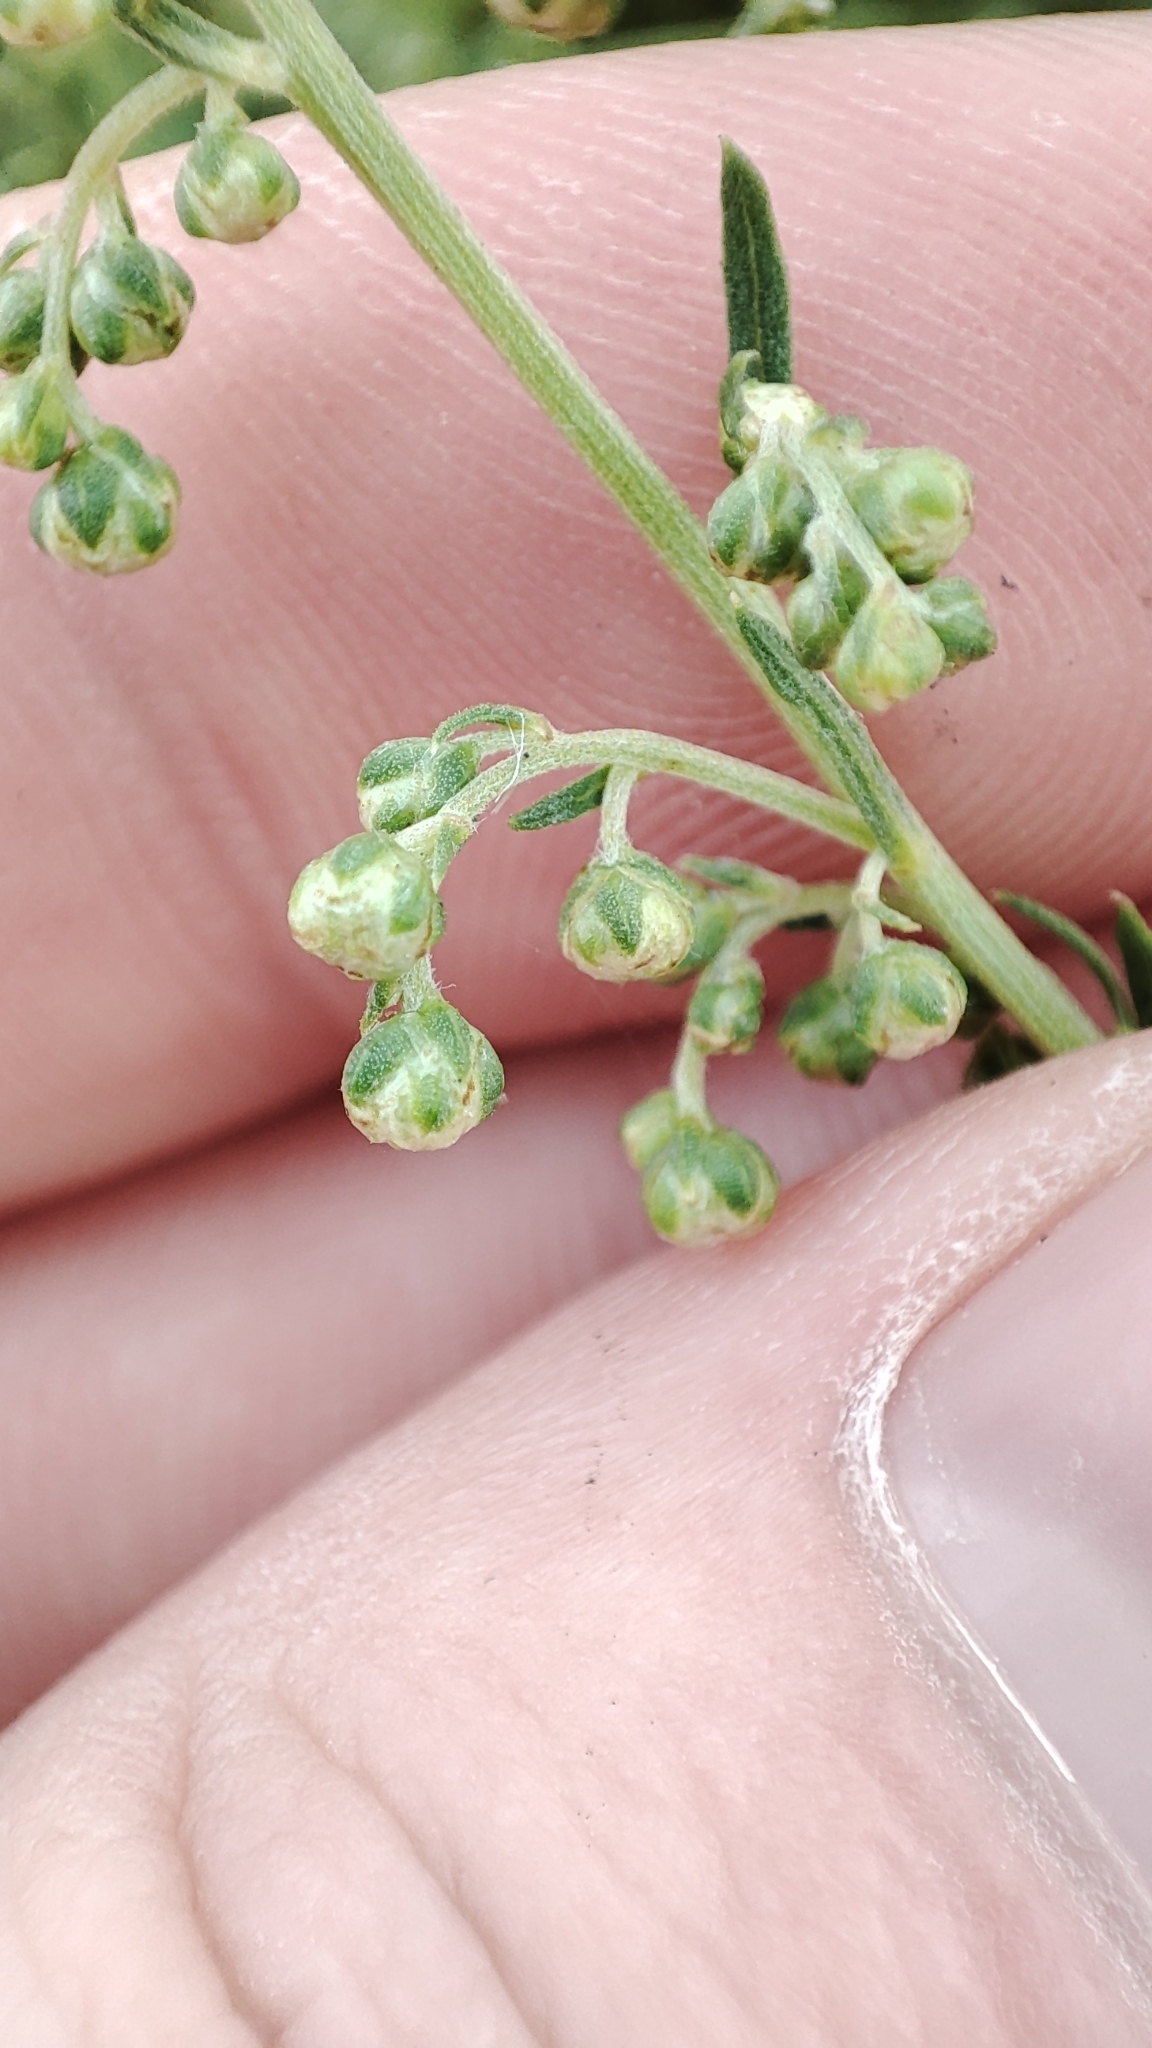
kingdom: Plantae
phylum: Tracheophyta
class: Magnoliopsida
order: Asterales
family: Asteraceae
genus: Artemisia
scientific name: Artemisia laciniata
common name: Siberian wormwood
